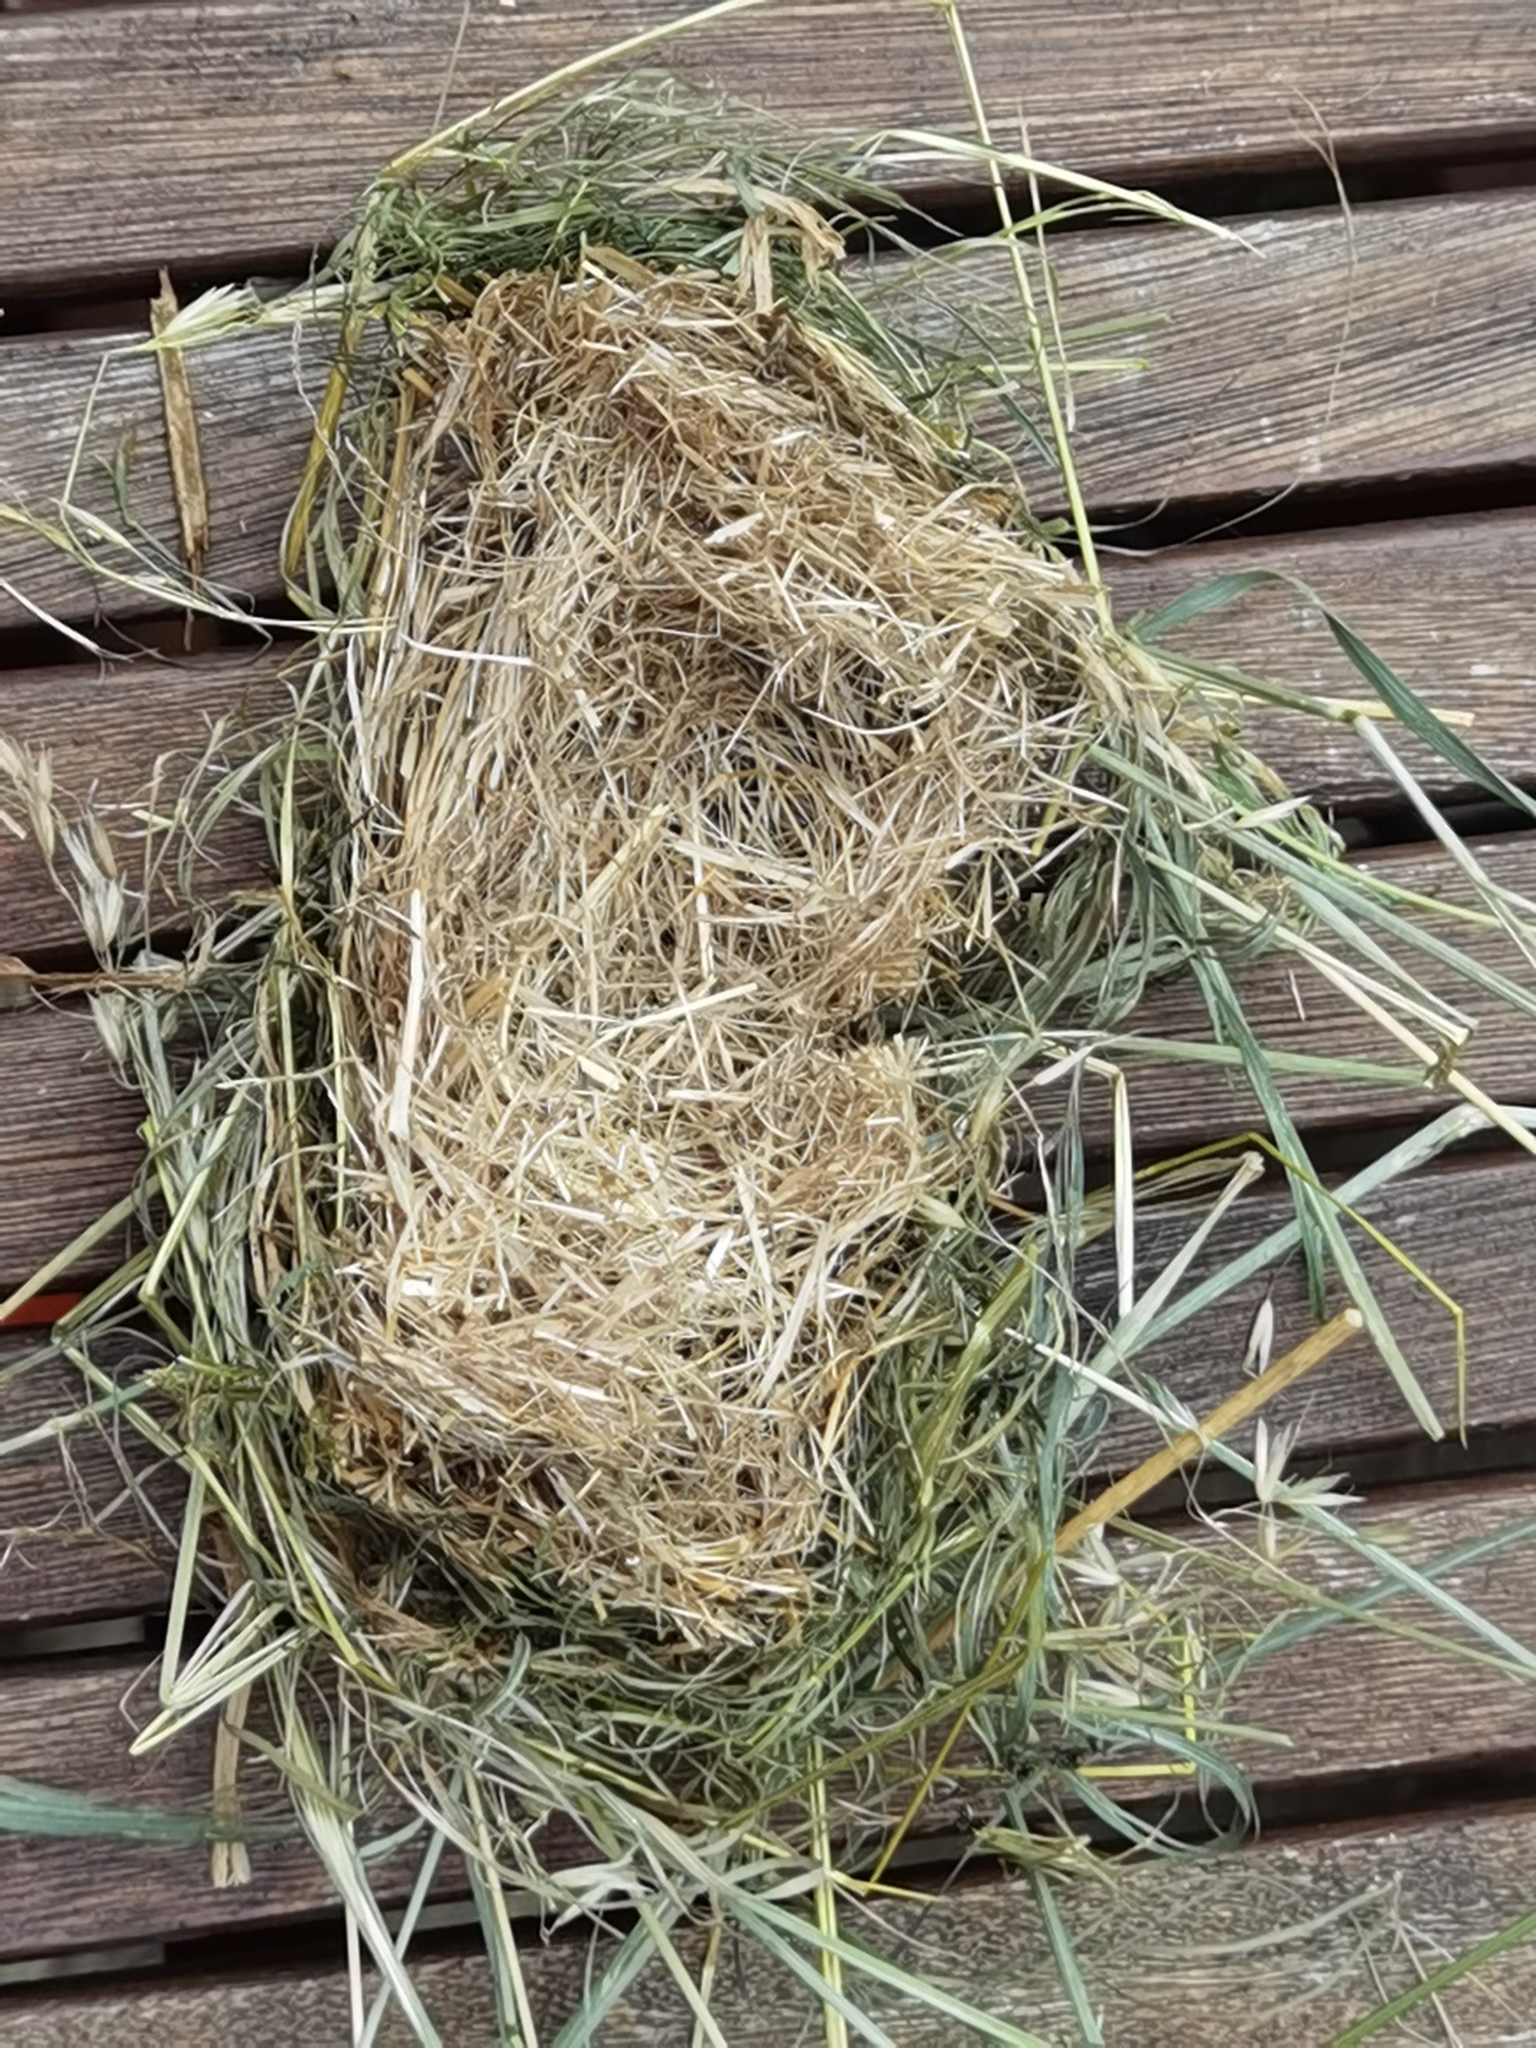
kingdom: Animalia
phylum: Chordata
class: Mammalia
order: Rodentia
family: Muridae
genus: Micromys
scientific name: Micromys minutus
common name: Harvest mouse
